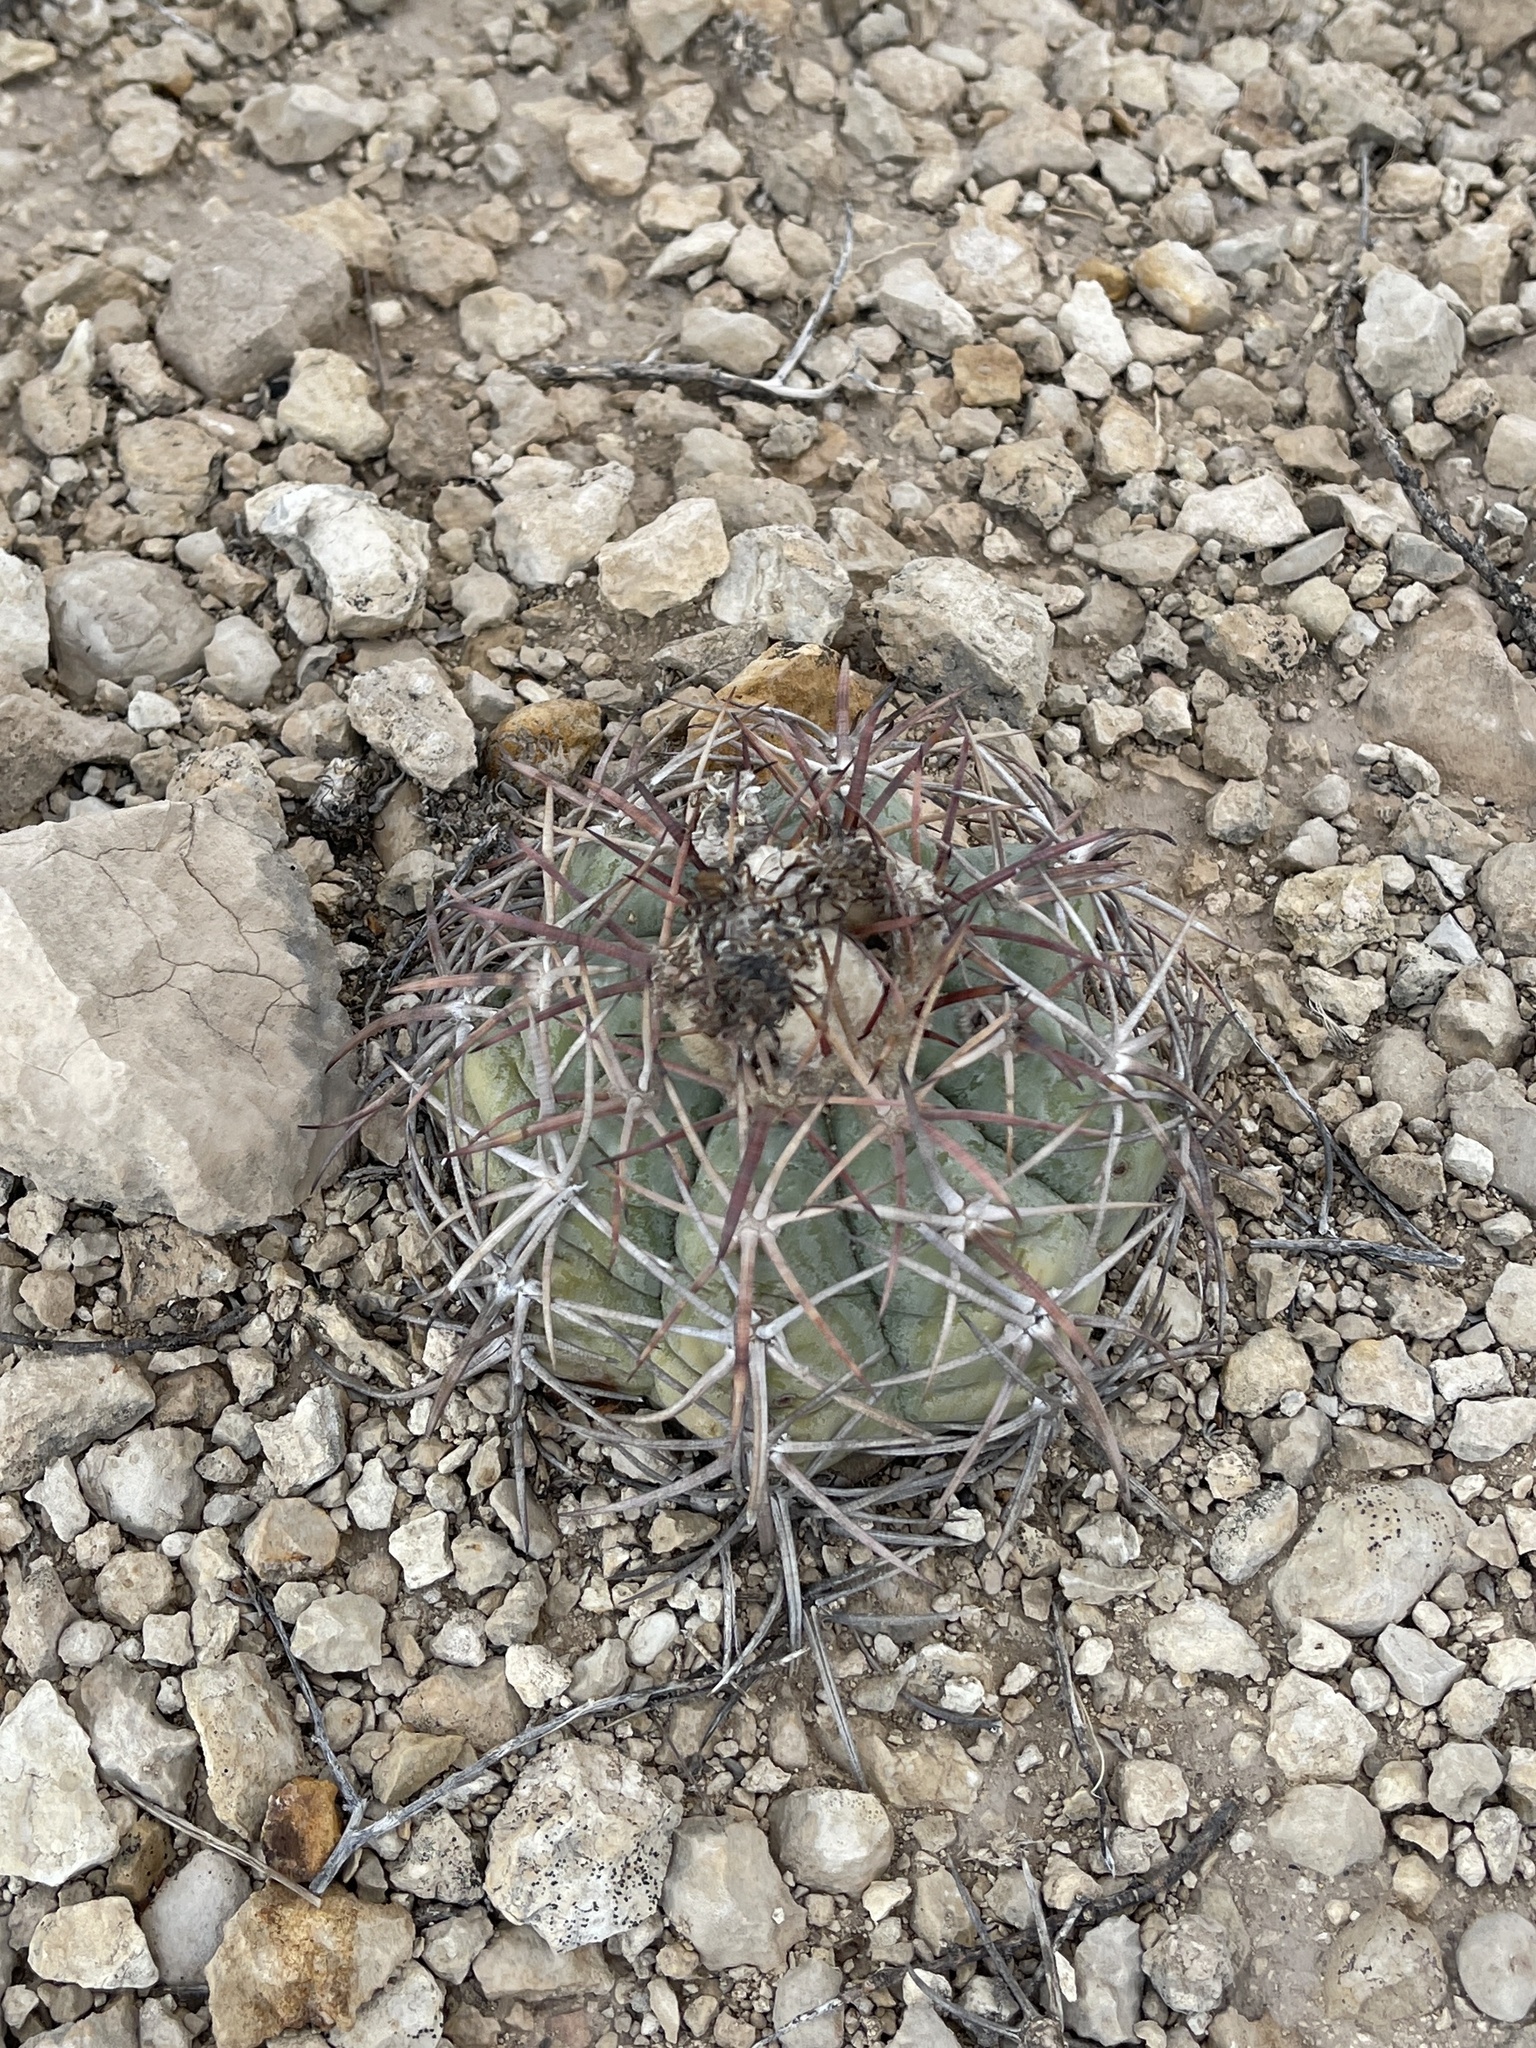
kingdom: Plantae
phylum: Tracheophyta
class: Magnoliopsida
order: Caryophyllales
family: Cactaceae
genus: Echinocactus
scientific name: Echinocactus horizonthalonius
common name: Devilshead
